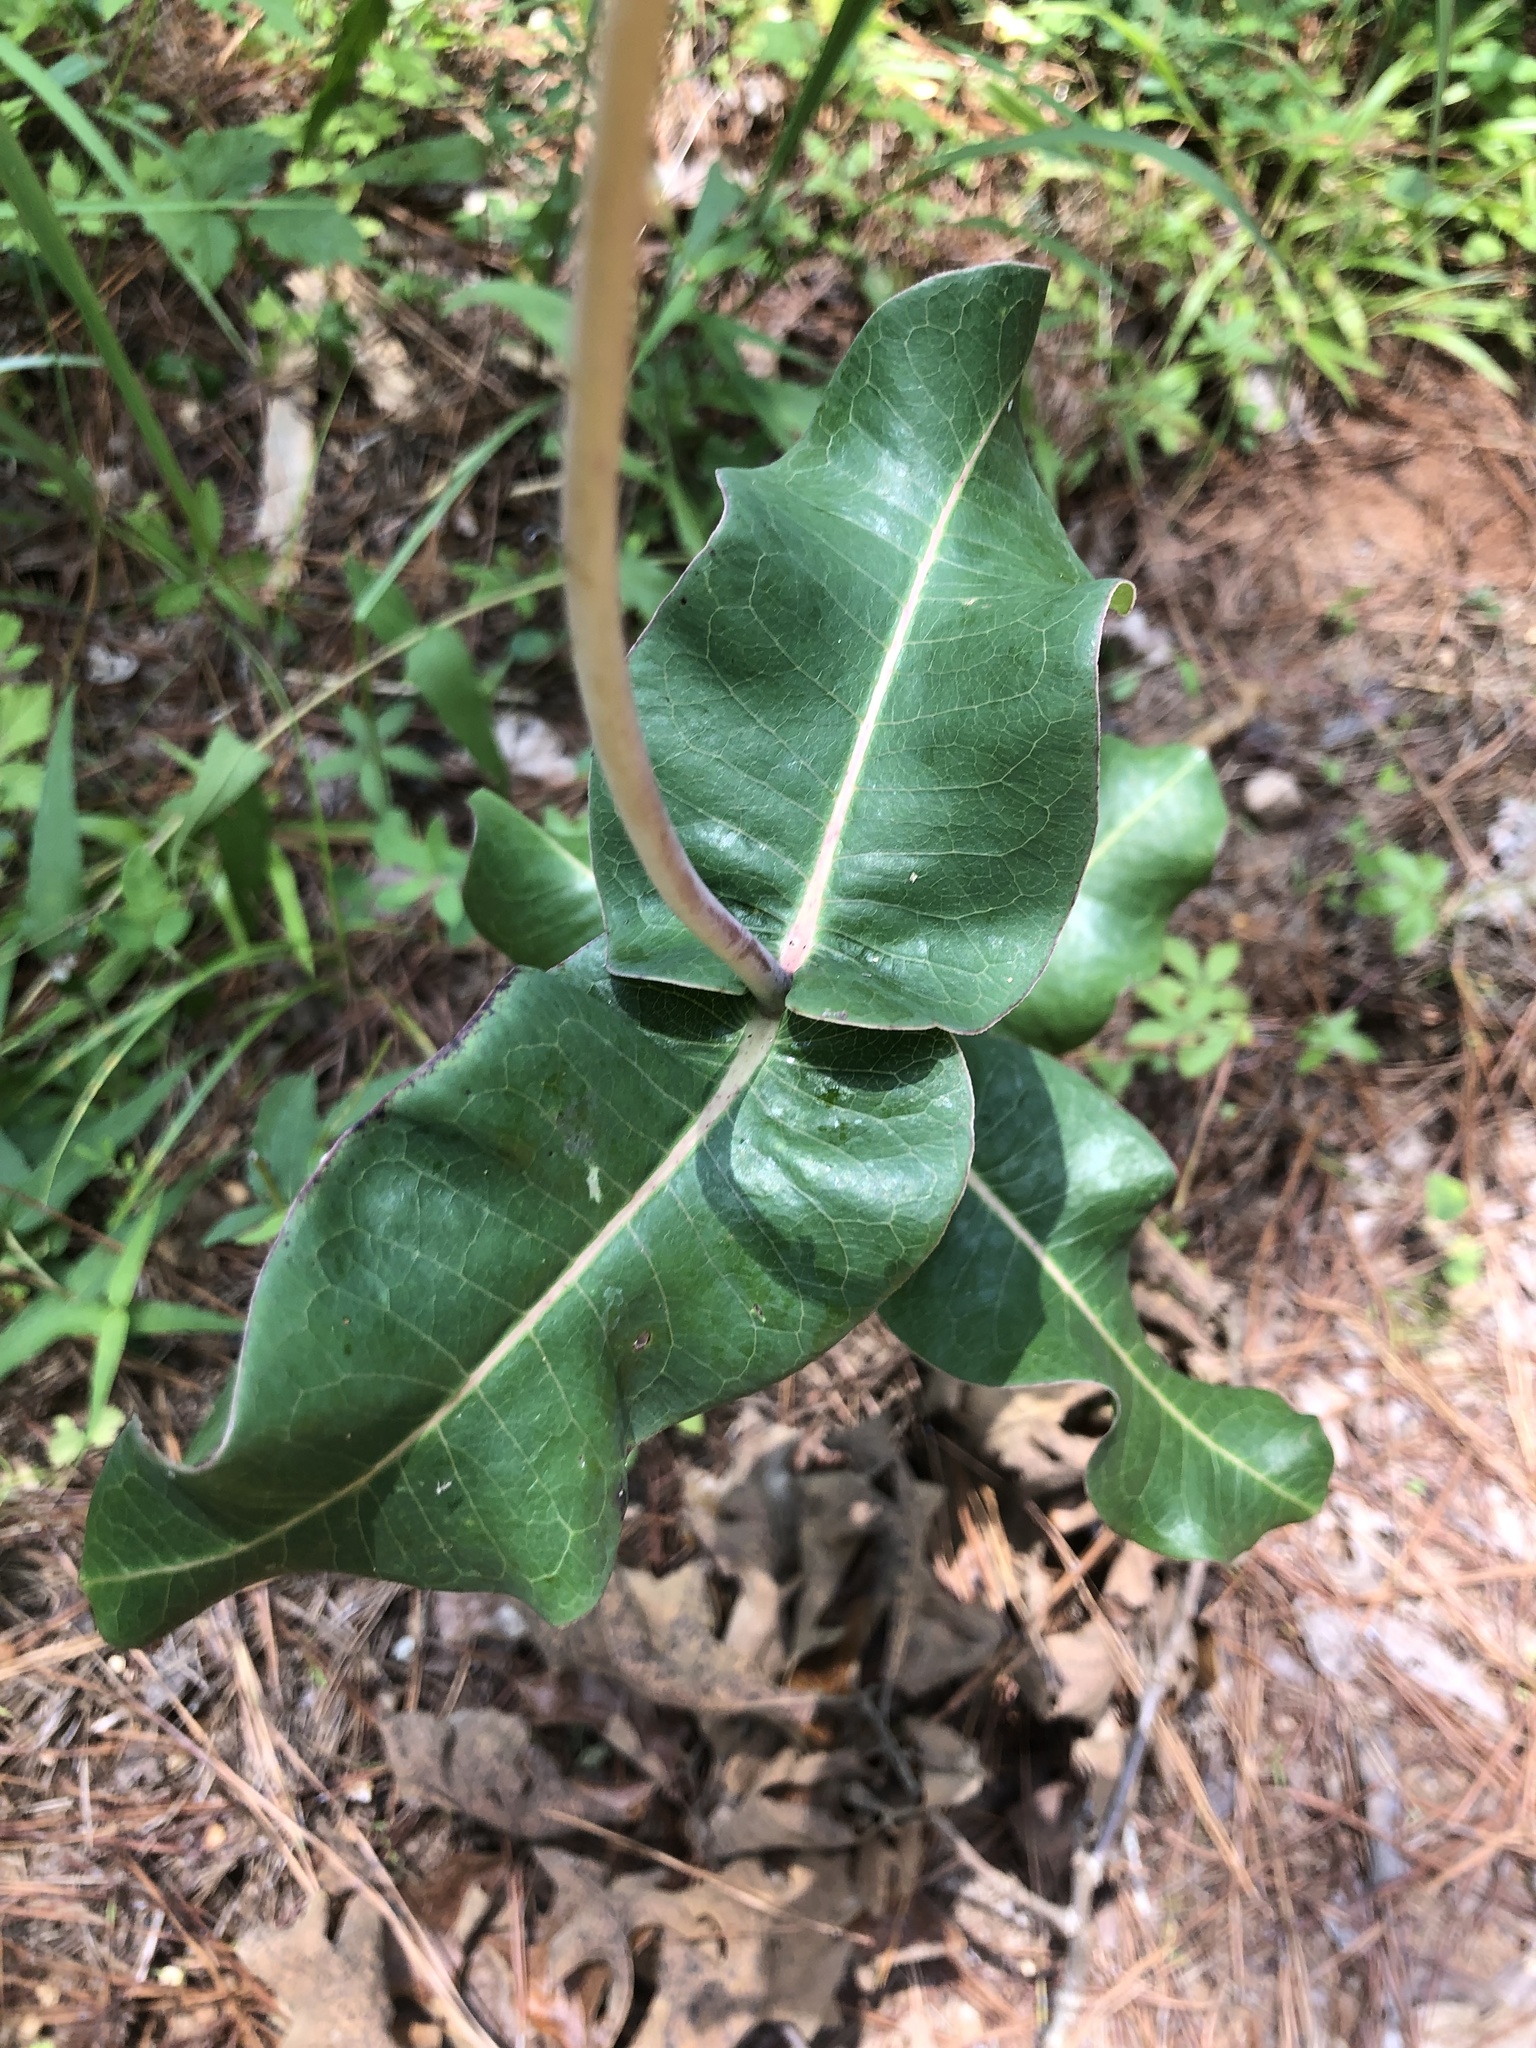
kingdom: Plantae
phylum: Tracheophyta
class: Magnoliopsida
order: Gentianales
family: Apocynaceae
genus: Asclepias
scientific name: Asclepias amplexicaulis
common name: Blunt-leaf milkweed
